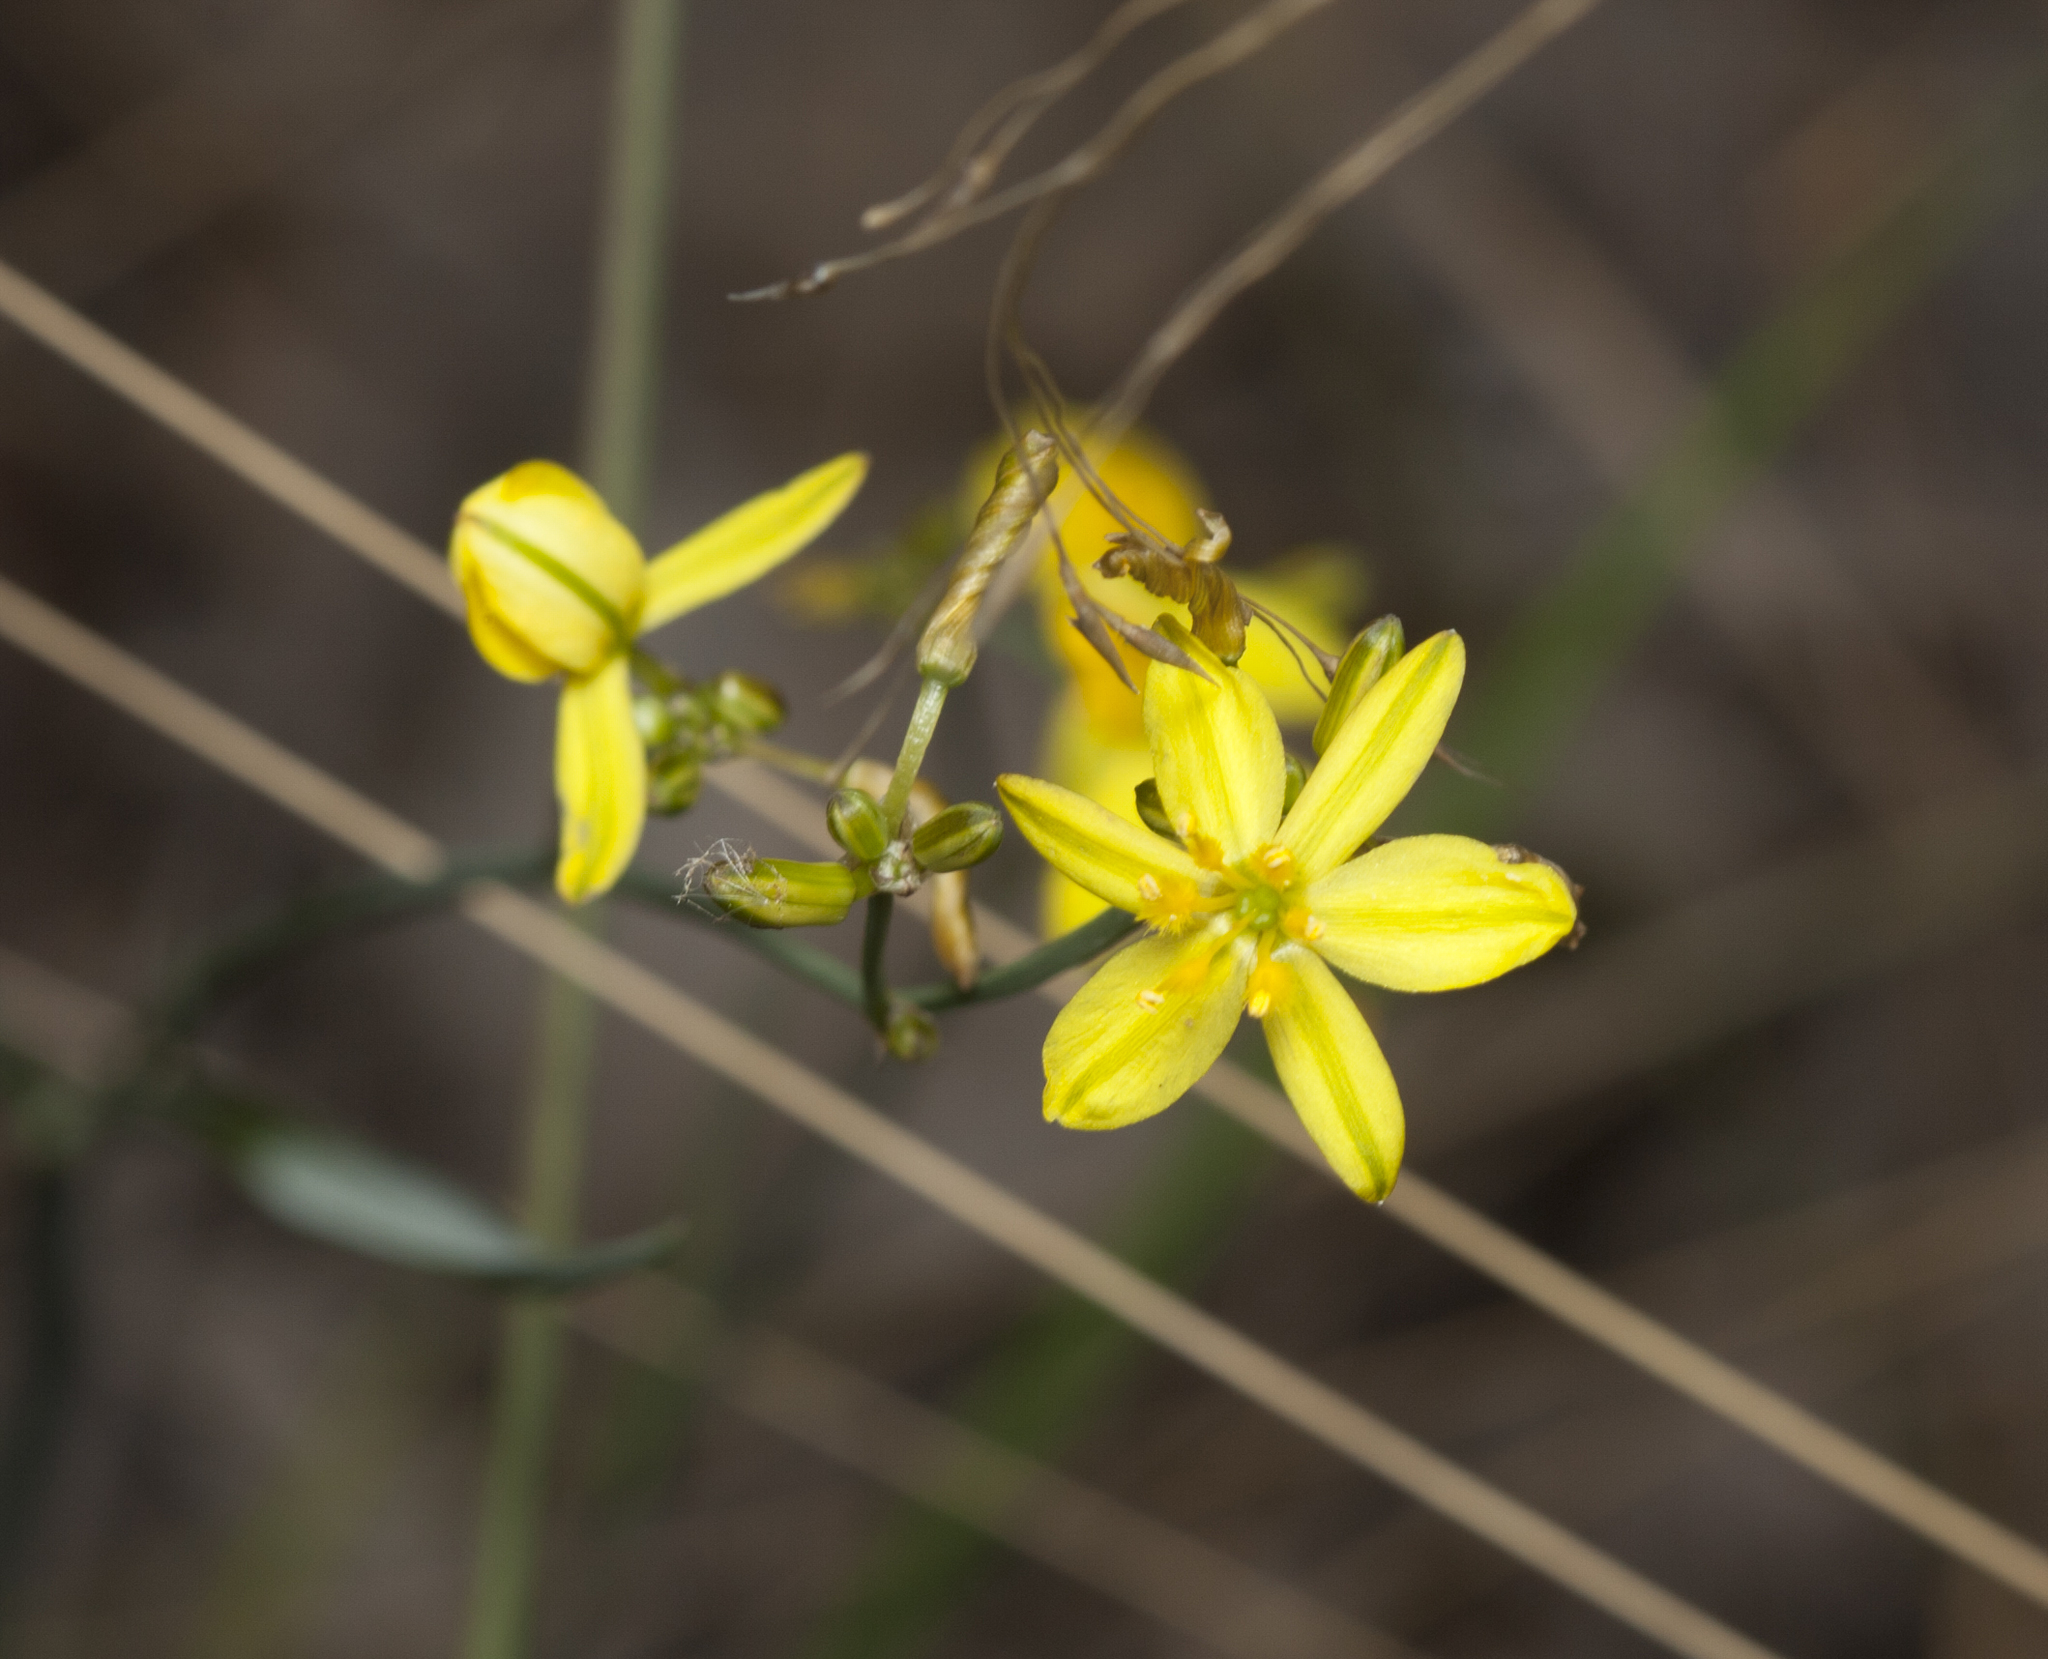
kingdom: Plantae
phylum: Tracheophyta
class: Liliopsida
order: Asparagales
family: Asphodelaceae
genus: Tricoryne
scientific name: Tricoryne elatior
